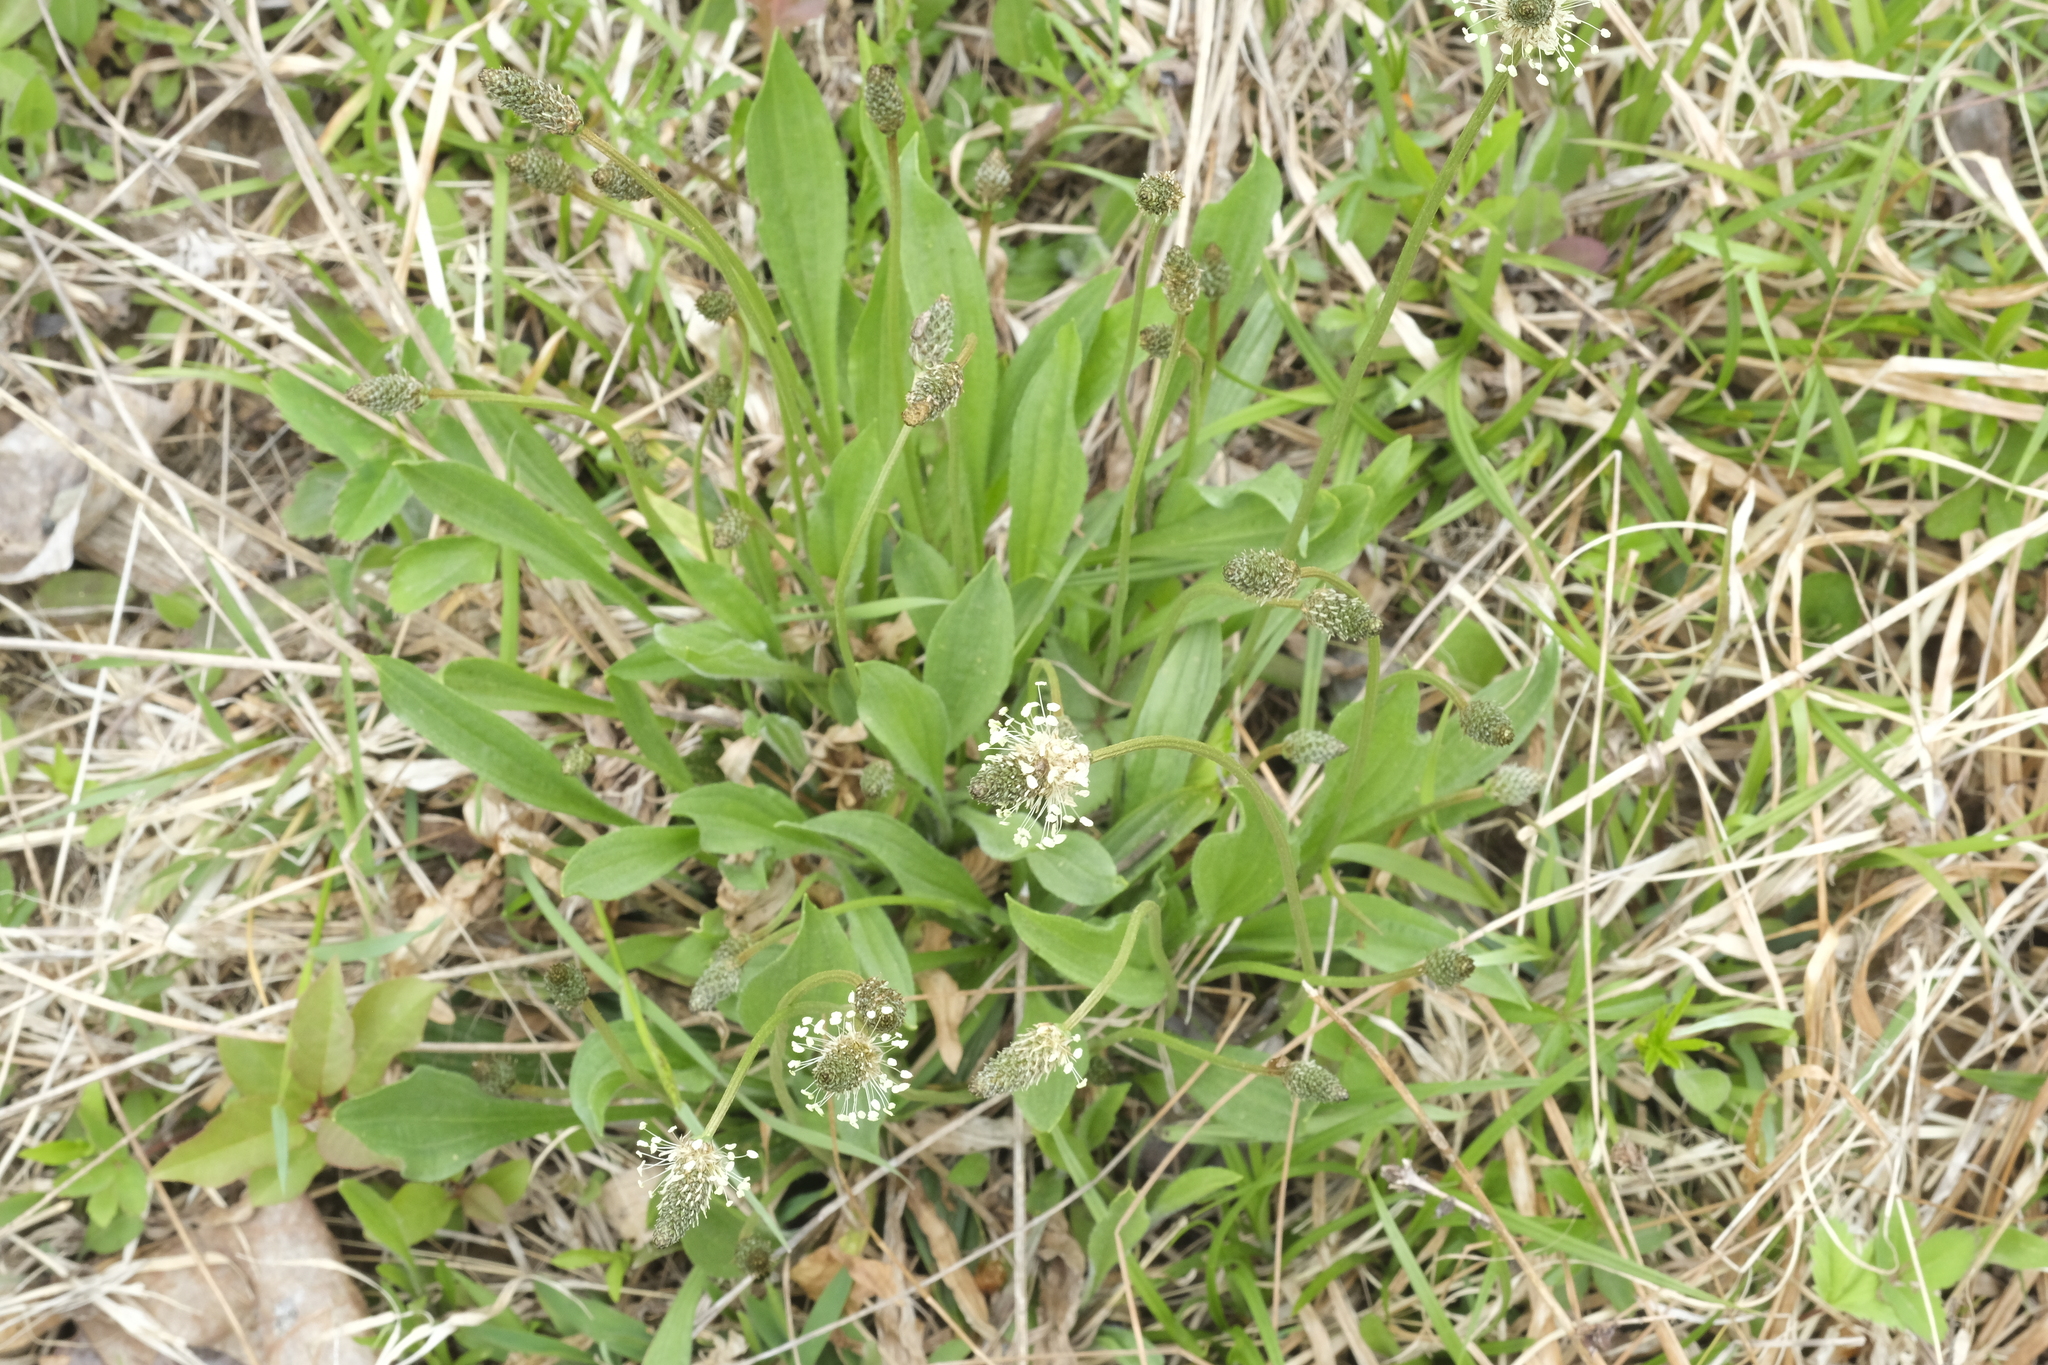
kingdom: Plantae
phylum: Tracheophyta
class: Magnoliopsida
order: Lamiales
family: Plantaginaceae
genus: Plantago
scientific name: Plantago lanceolata
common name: Ribwort plantain
